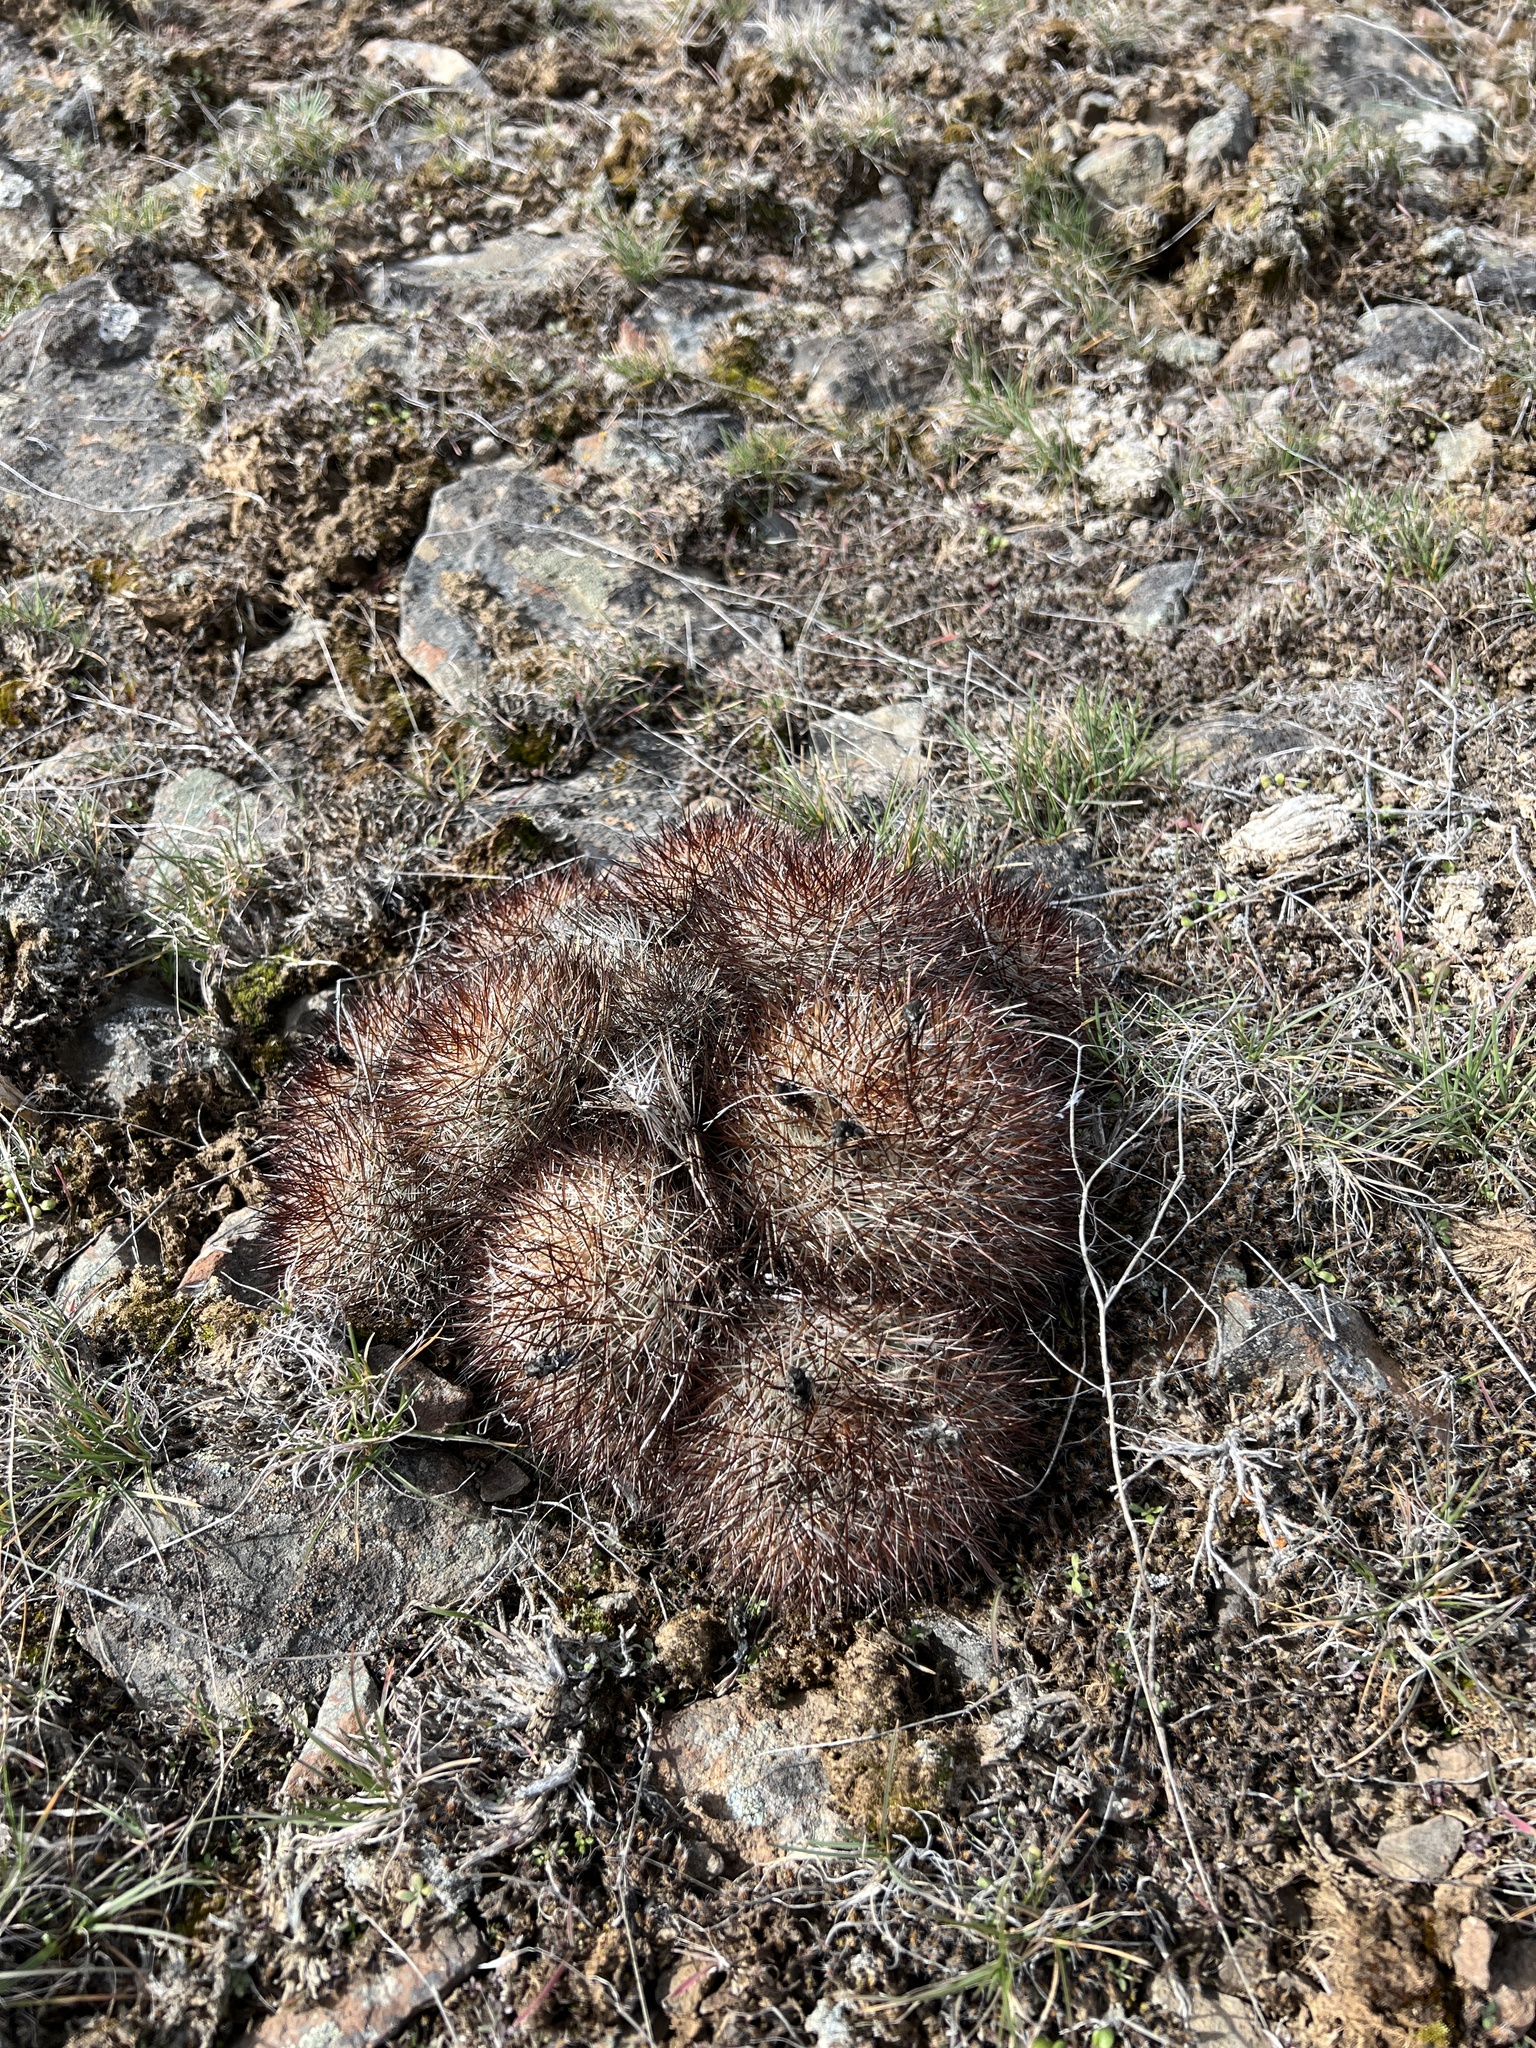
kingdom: Plantae
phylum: Tracheophyta
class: Magnoliopsida
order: Caryophyllales
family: Cactaceae
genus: Pediocactus
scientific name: Pediocactus nigrispinus
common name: Simpson's hedgehog cactus
